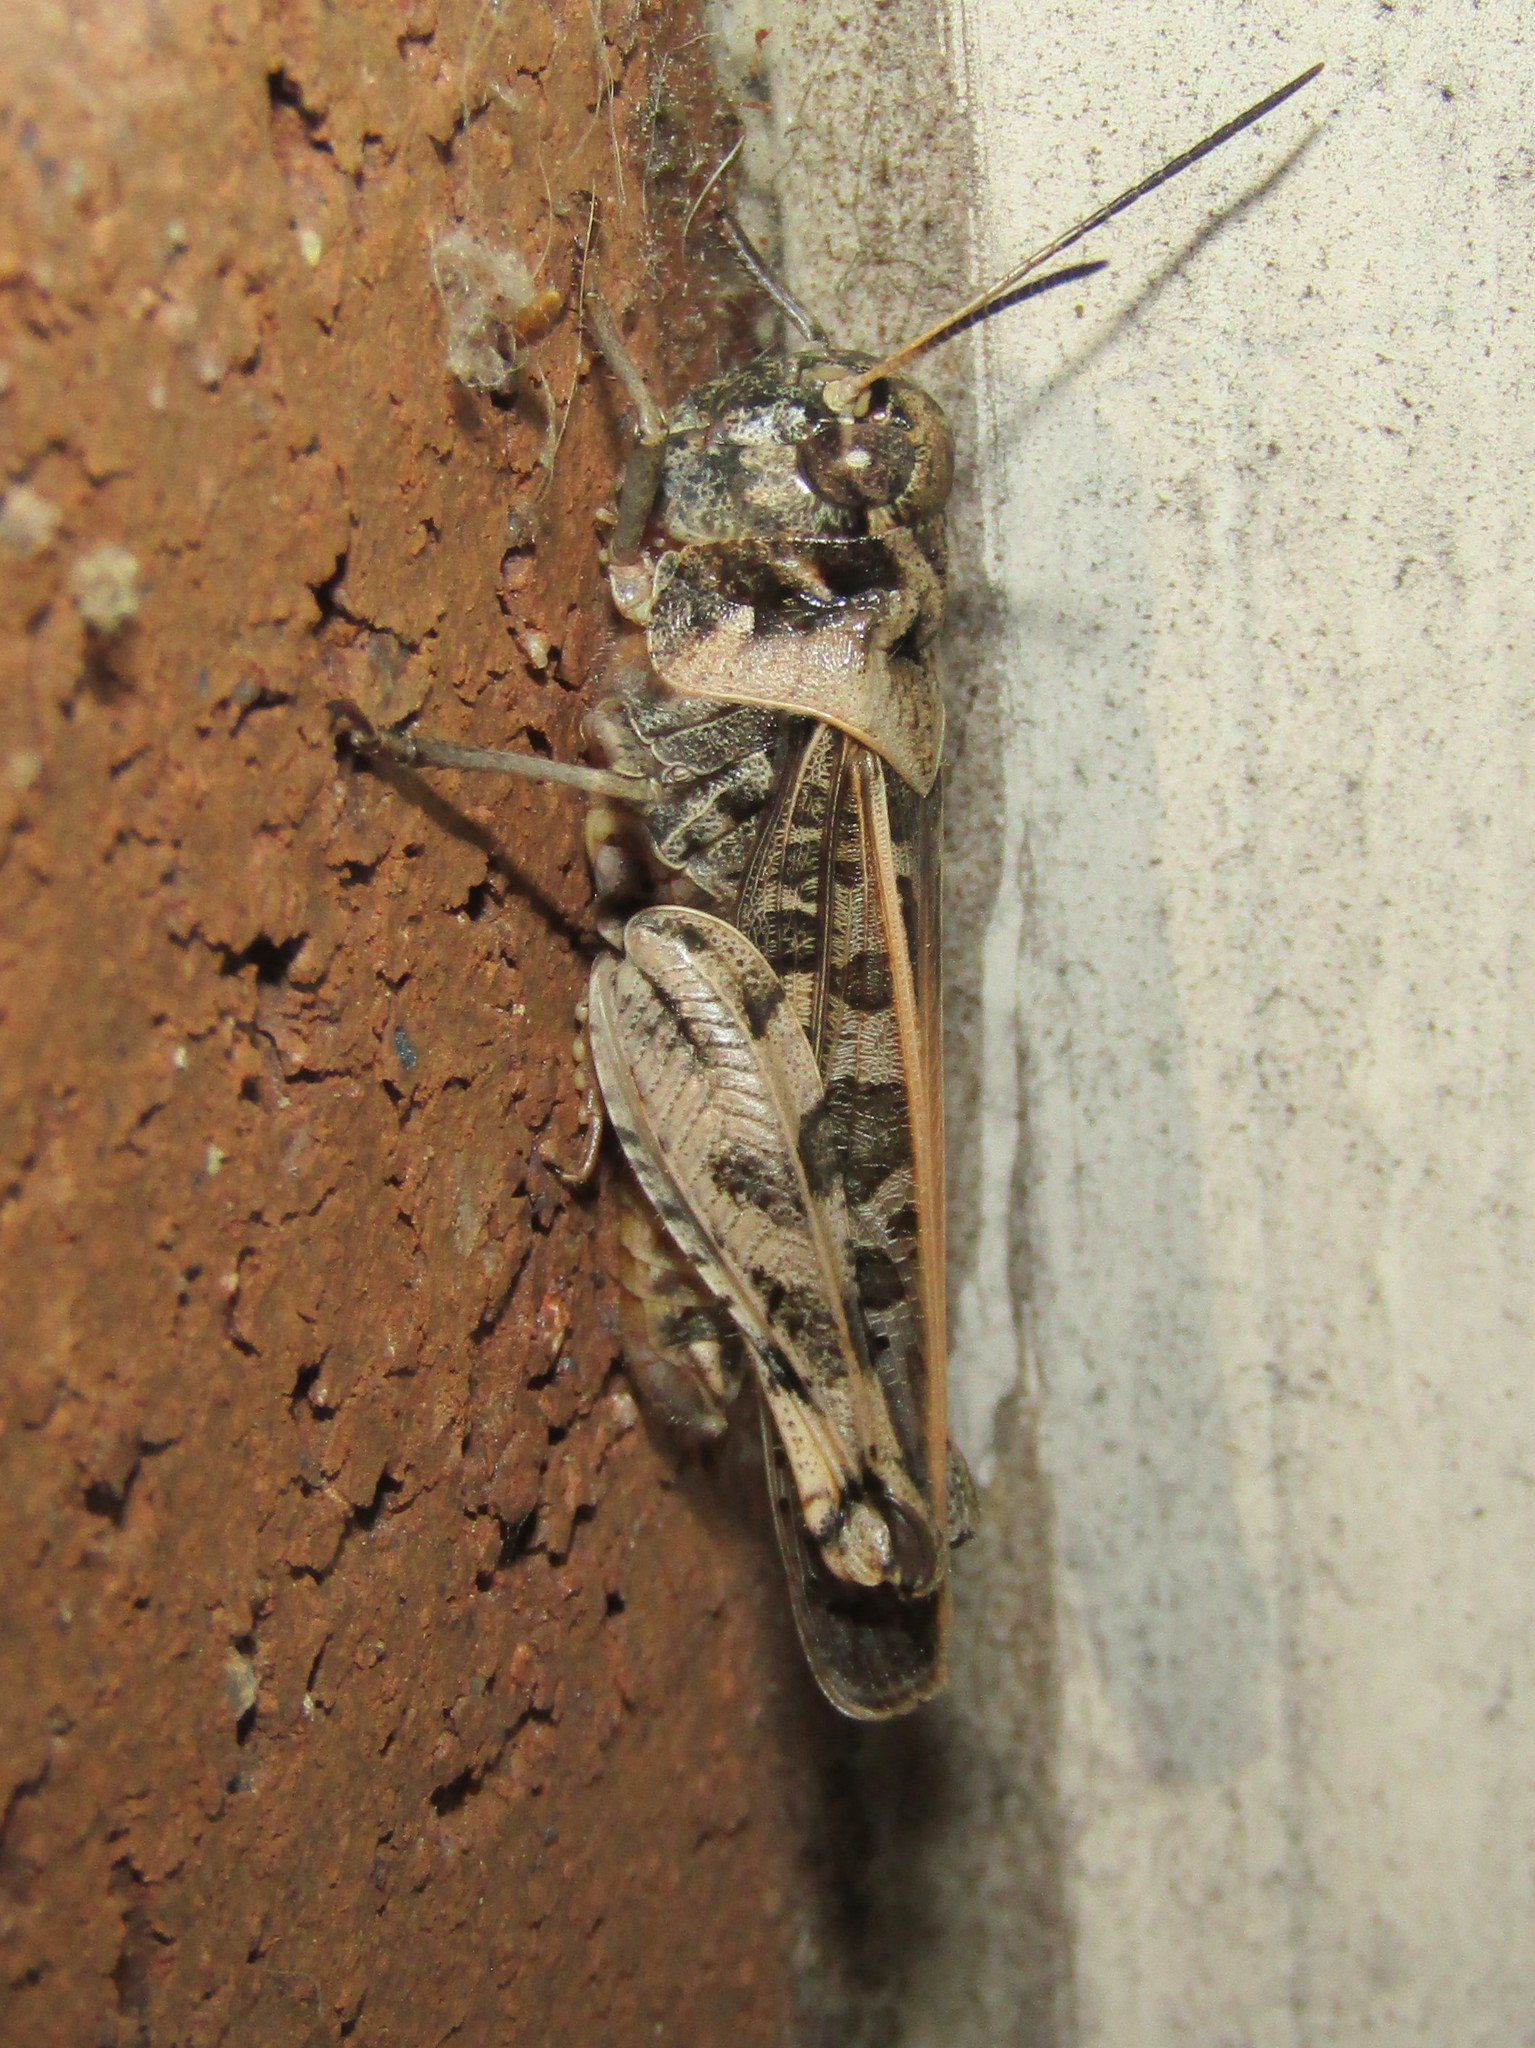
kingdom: Animalia
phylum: Arthropoda
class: Insecta
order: Orthoptera
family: Acrididae
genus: Hippiscus
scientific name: Hippiscus ocelote
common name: Wrinkled grasshopper
